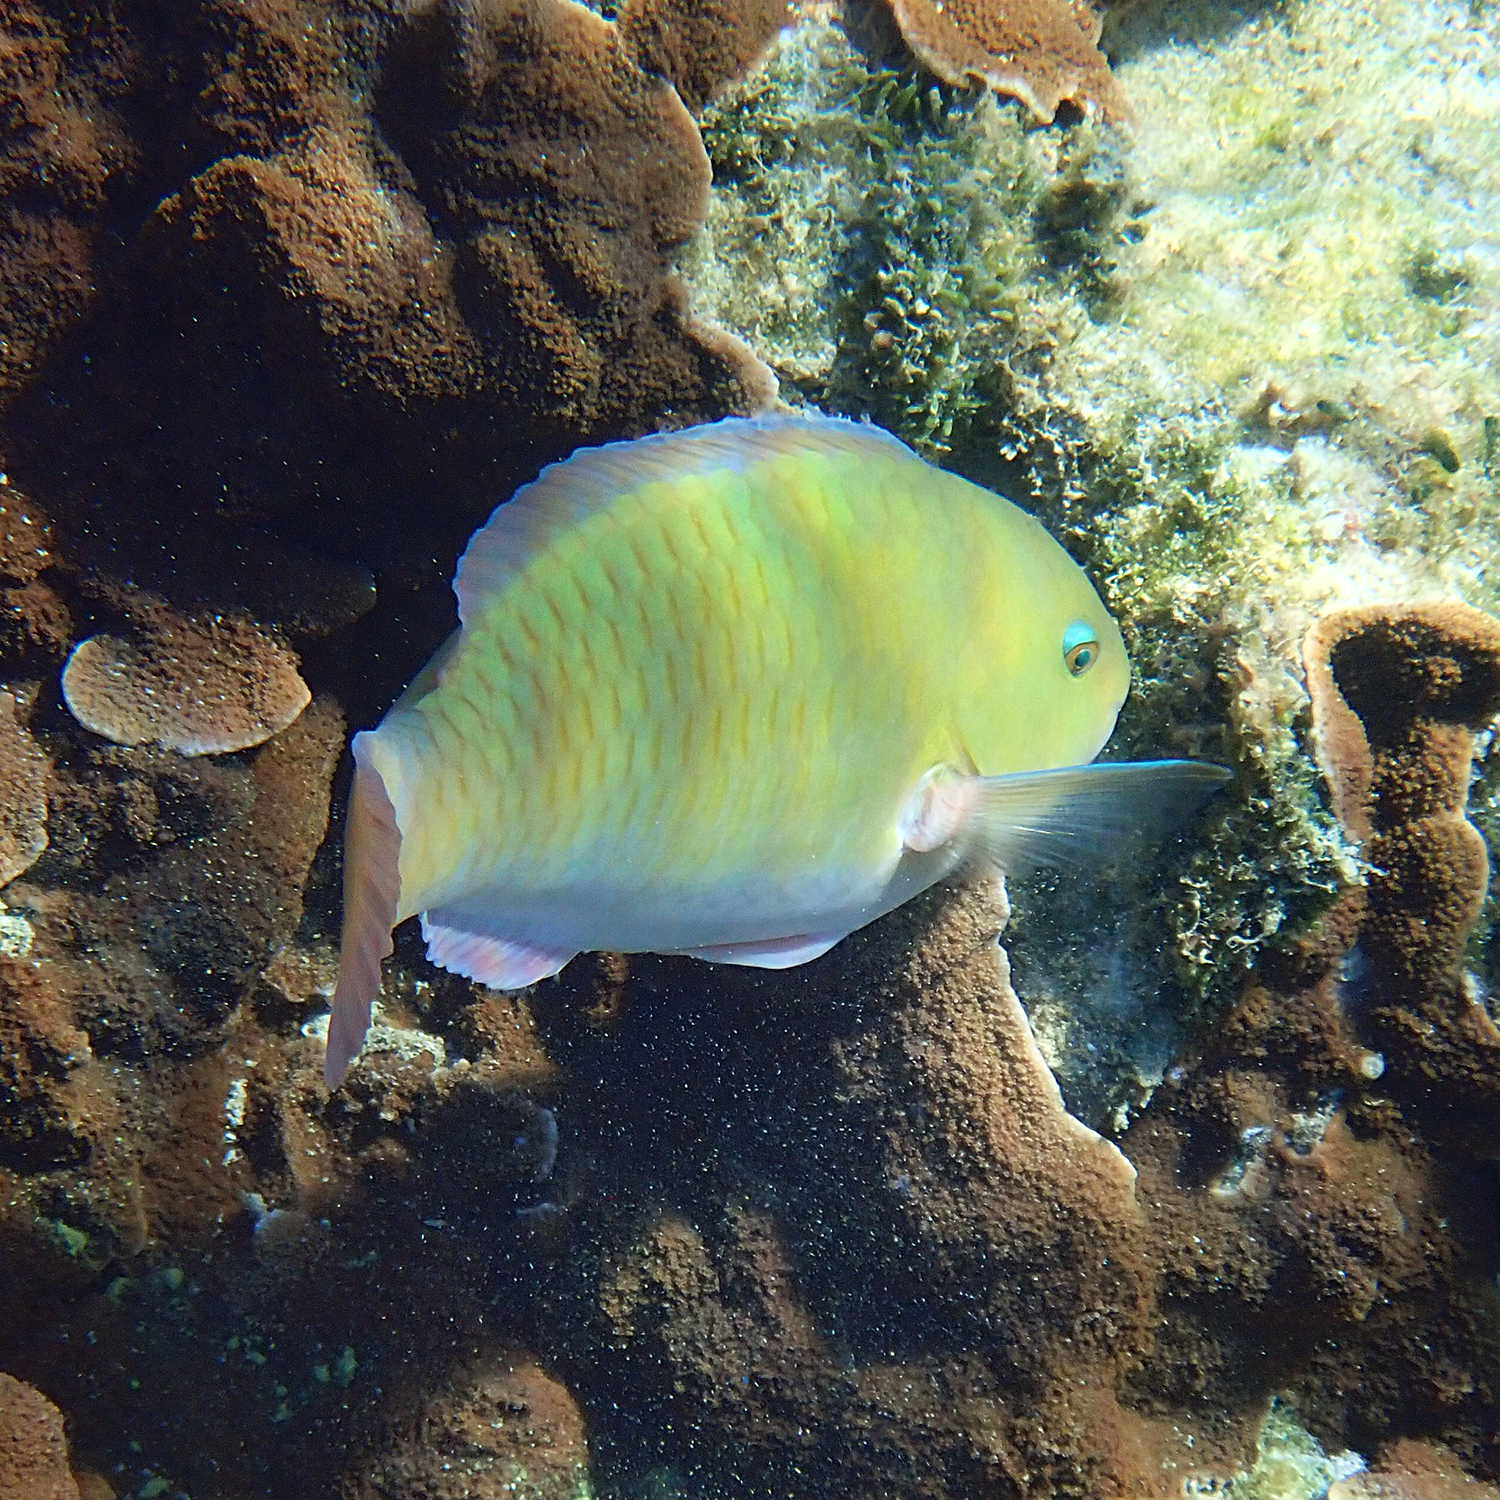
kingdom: Animalia
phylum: Chordata
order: Perciformes
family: Scaridae
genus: Scarus
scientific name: Scarus rivulatus
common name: Surf parrotfish
